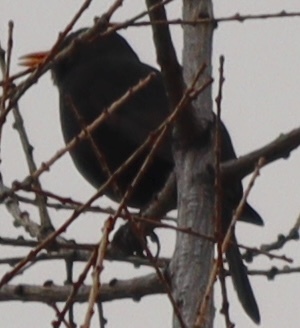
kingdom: Animalia
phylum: Chordata
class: Aves
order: Passeriformes
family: Turdidae
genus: Turdus
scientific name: Turdus merula
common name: Common blackbird
